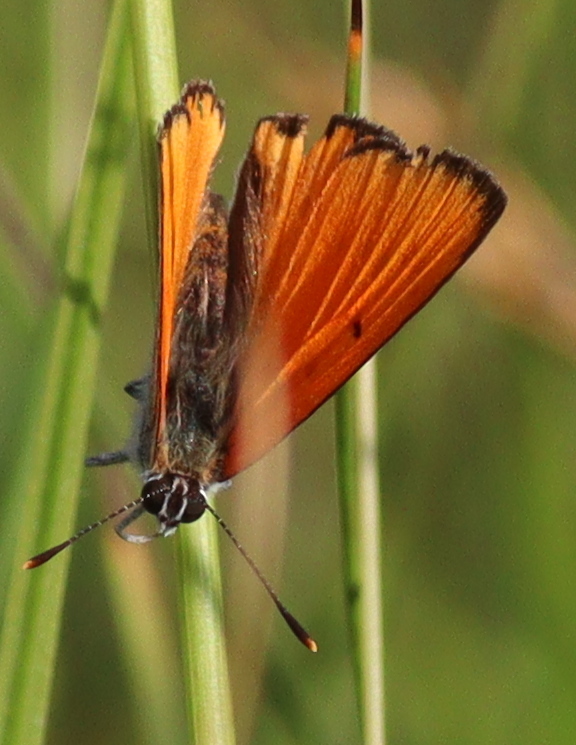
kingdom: Animalia
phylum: Arthropoda
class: Insecta
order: Lepidoptera
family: Lycaenidae
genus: Lycaena
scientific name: Lycaena dispar
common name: Large copper
